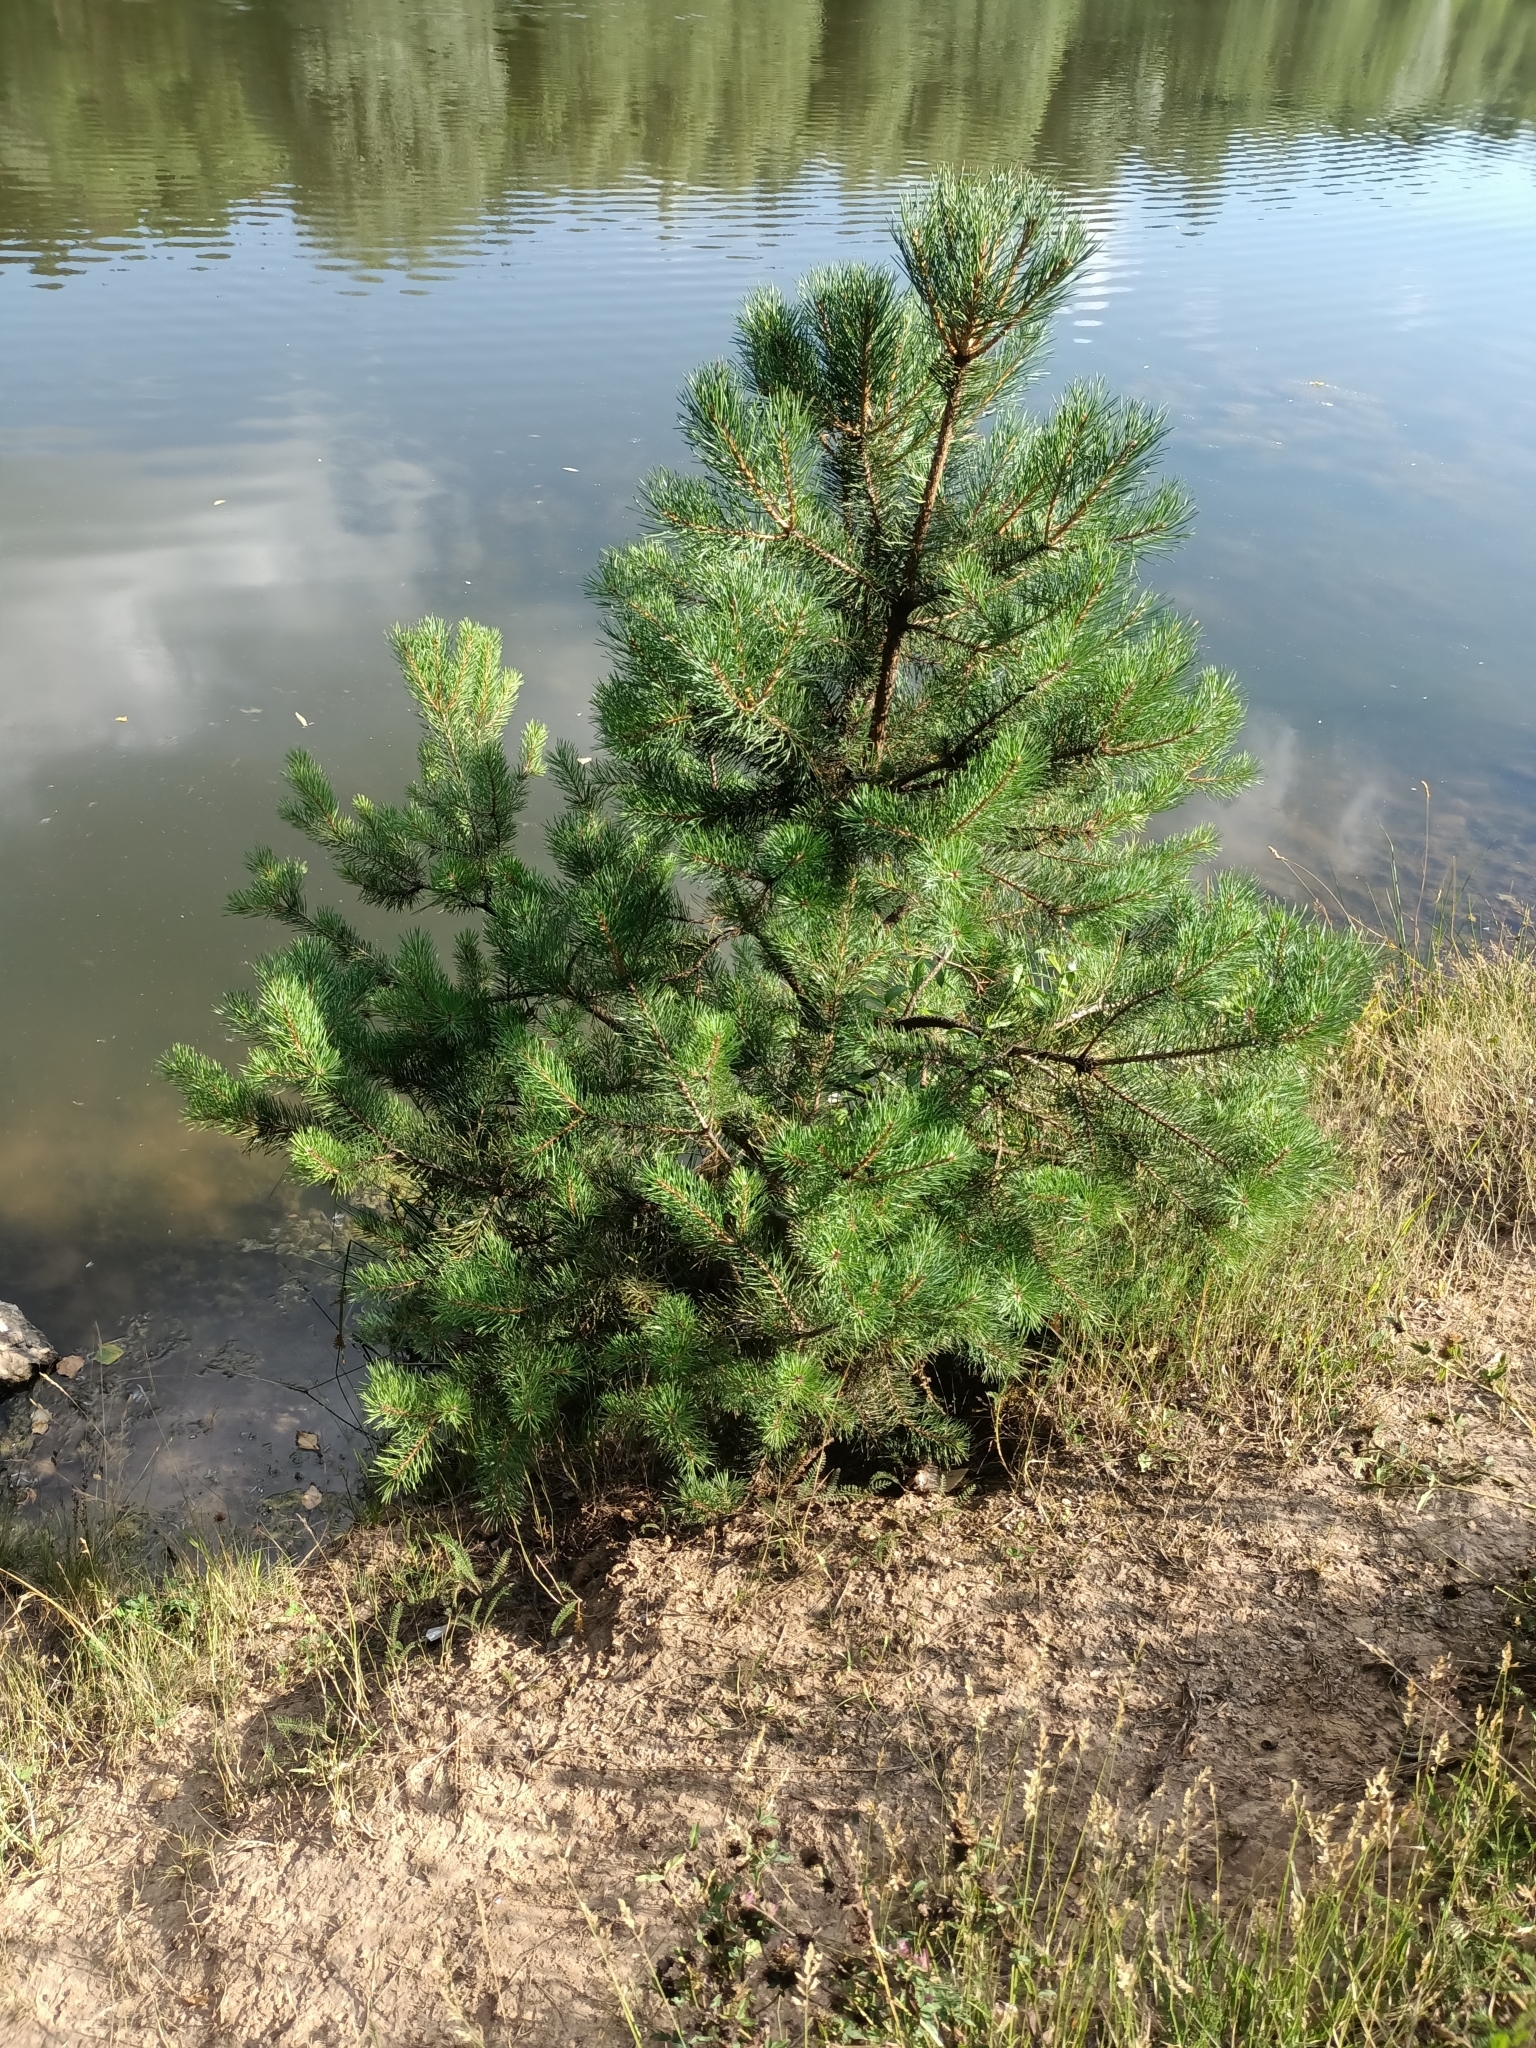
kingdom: Plantae
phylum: Tracheophyta
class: Pinopsida
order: Pinales
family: Pinaceae
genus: Pinus
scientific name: Pinus sylvestris
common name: Scots pine
